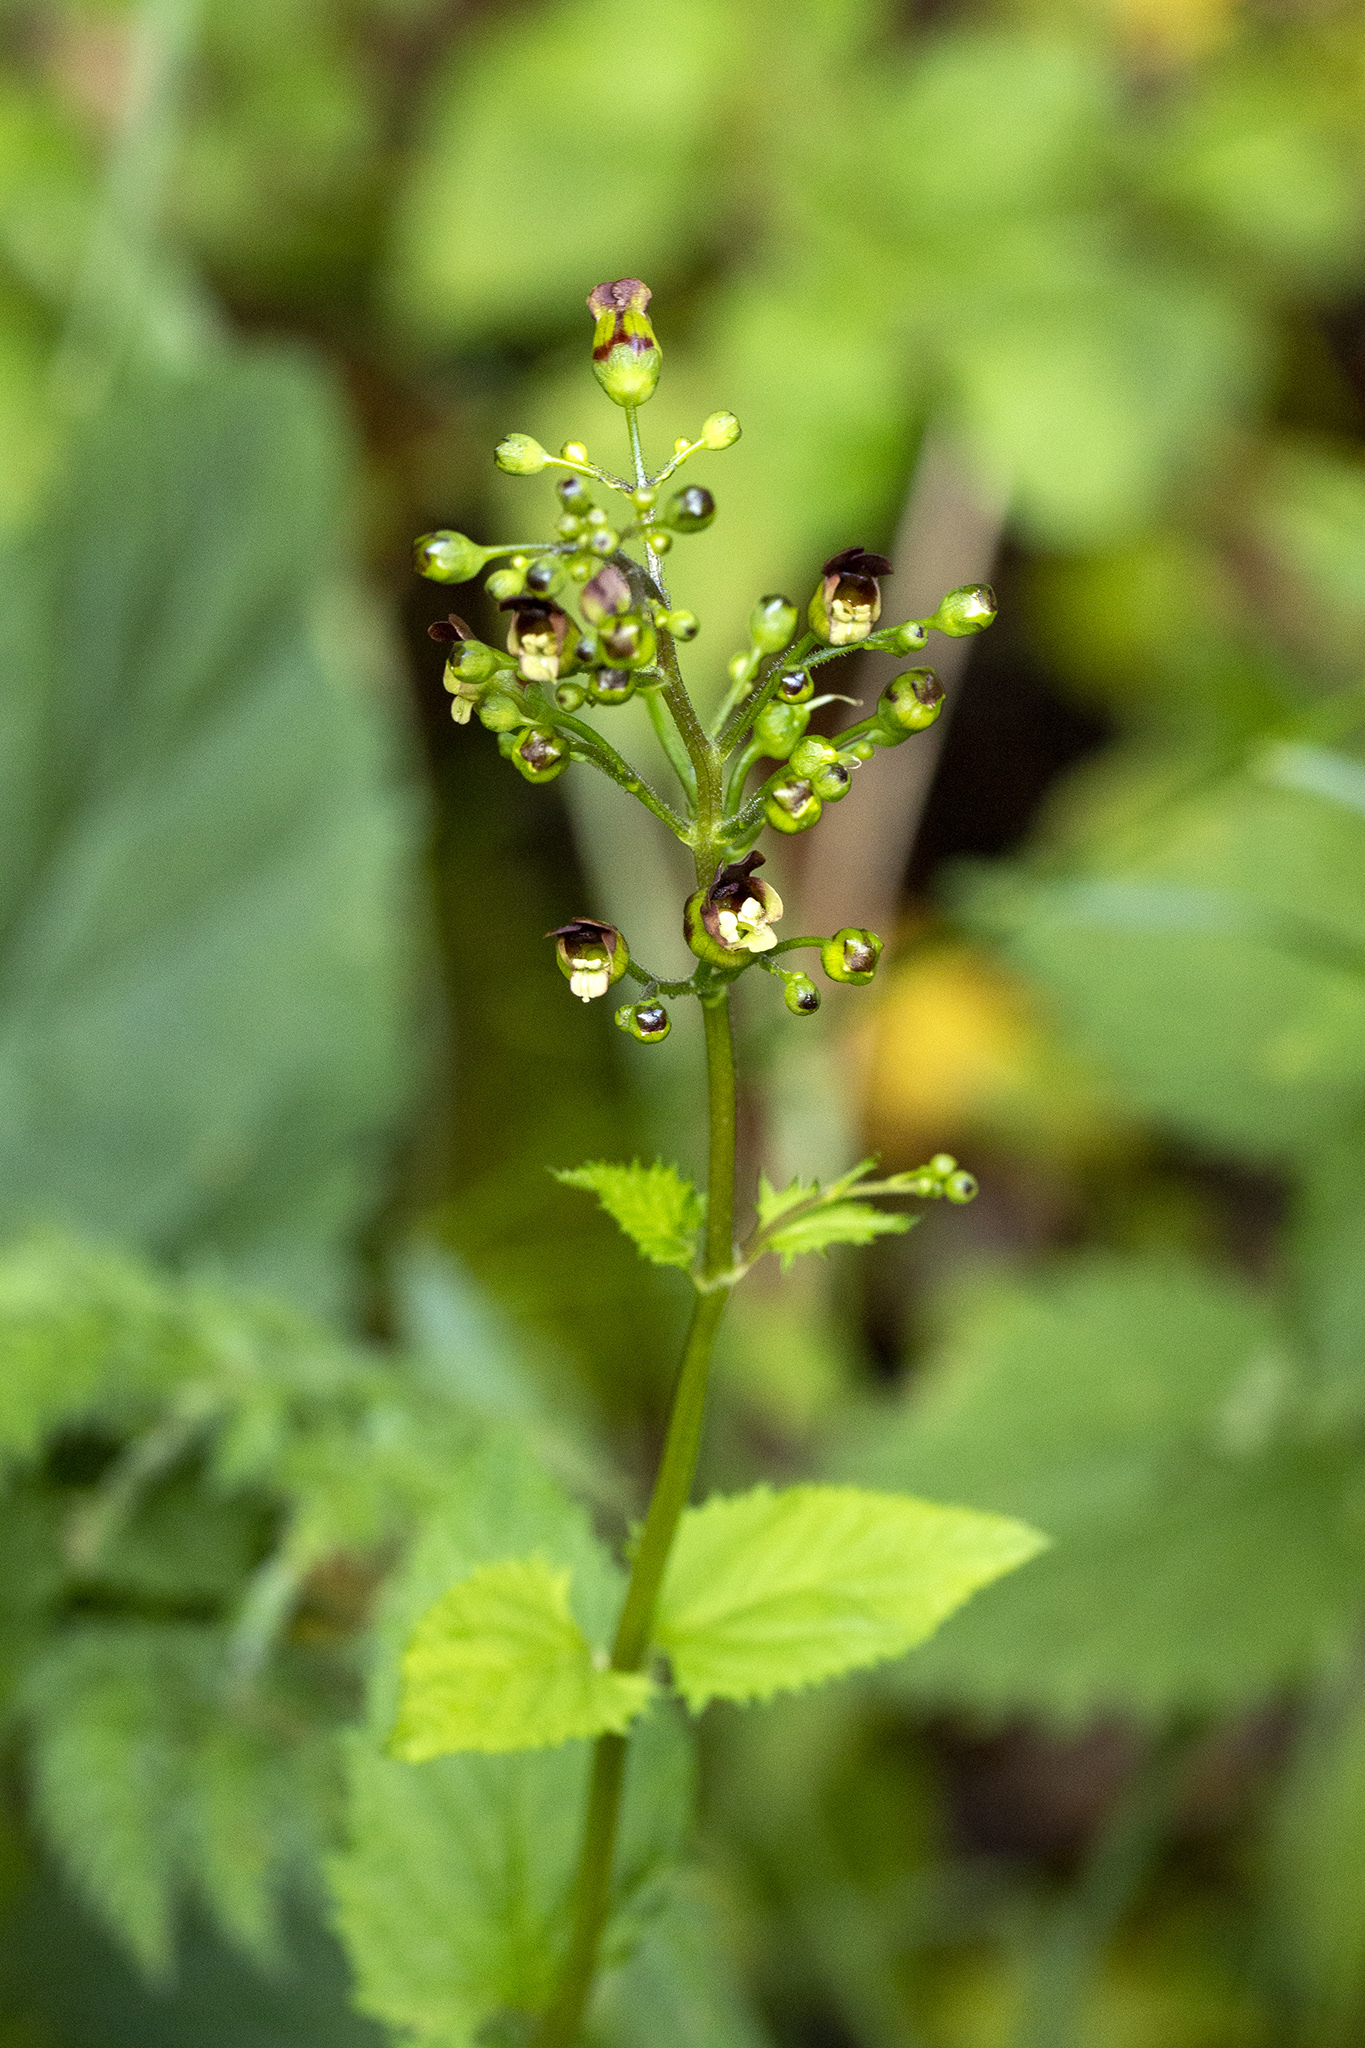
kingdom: Plantae
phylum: Tracheophyta
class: Magnoliopsida
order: Lamiales
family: Scrophulariaceae
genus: Scrophularia
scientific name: Scrophularia nodosa
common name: Common figwort
